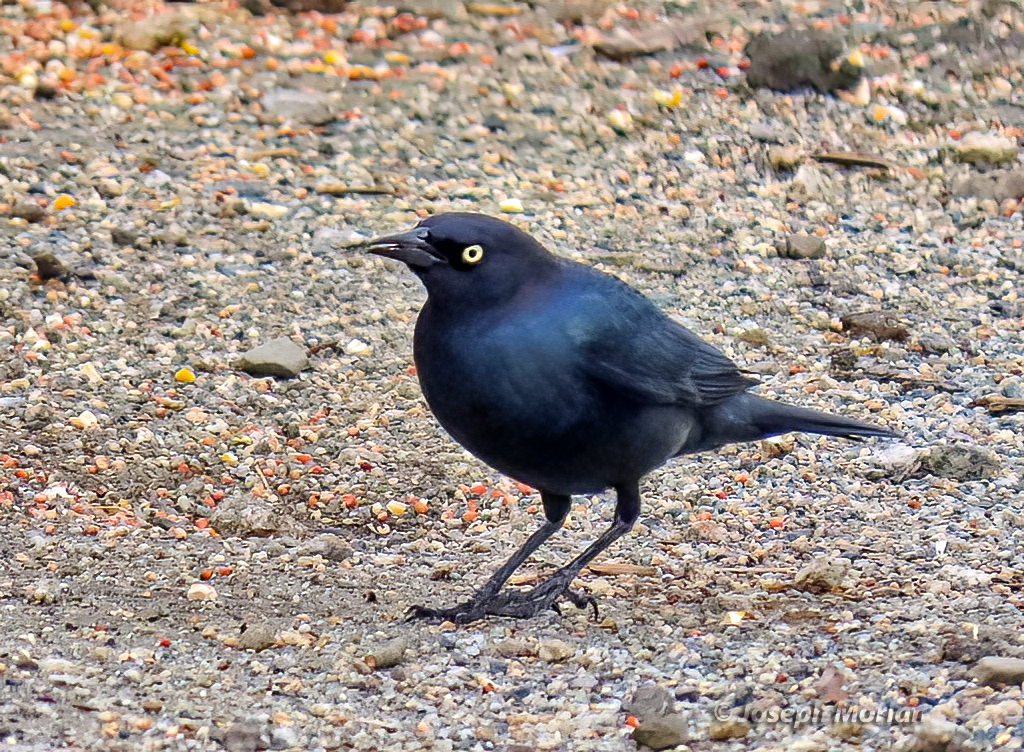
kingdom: Animalia
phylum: Chordata
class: Aves
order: Passeriformes
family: Icteridae
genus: Euphagus
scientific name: Euphagus cyanocephalus
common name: Brewer's blackbird
